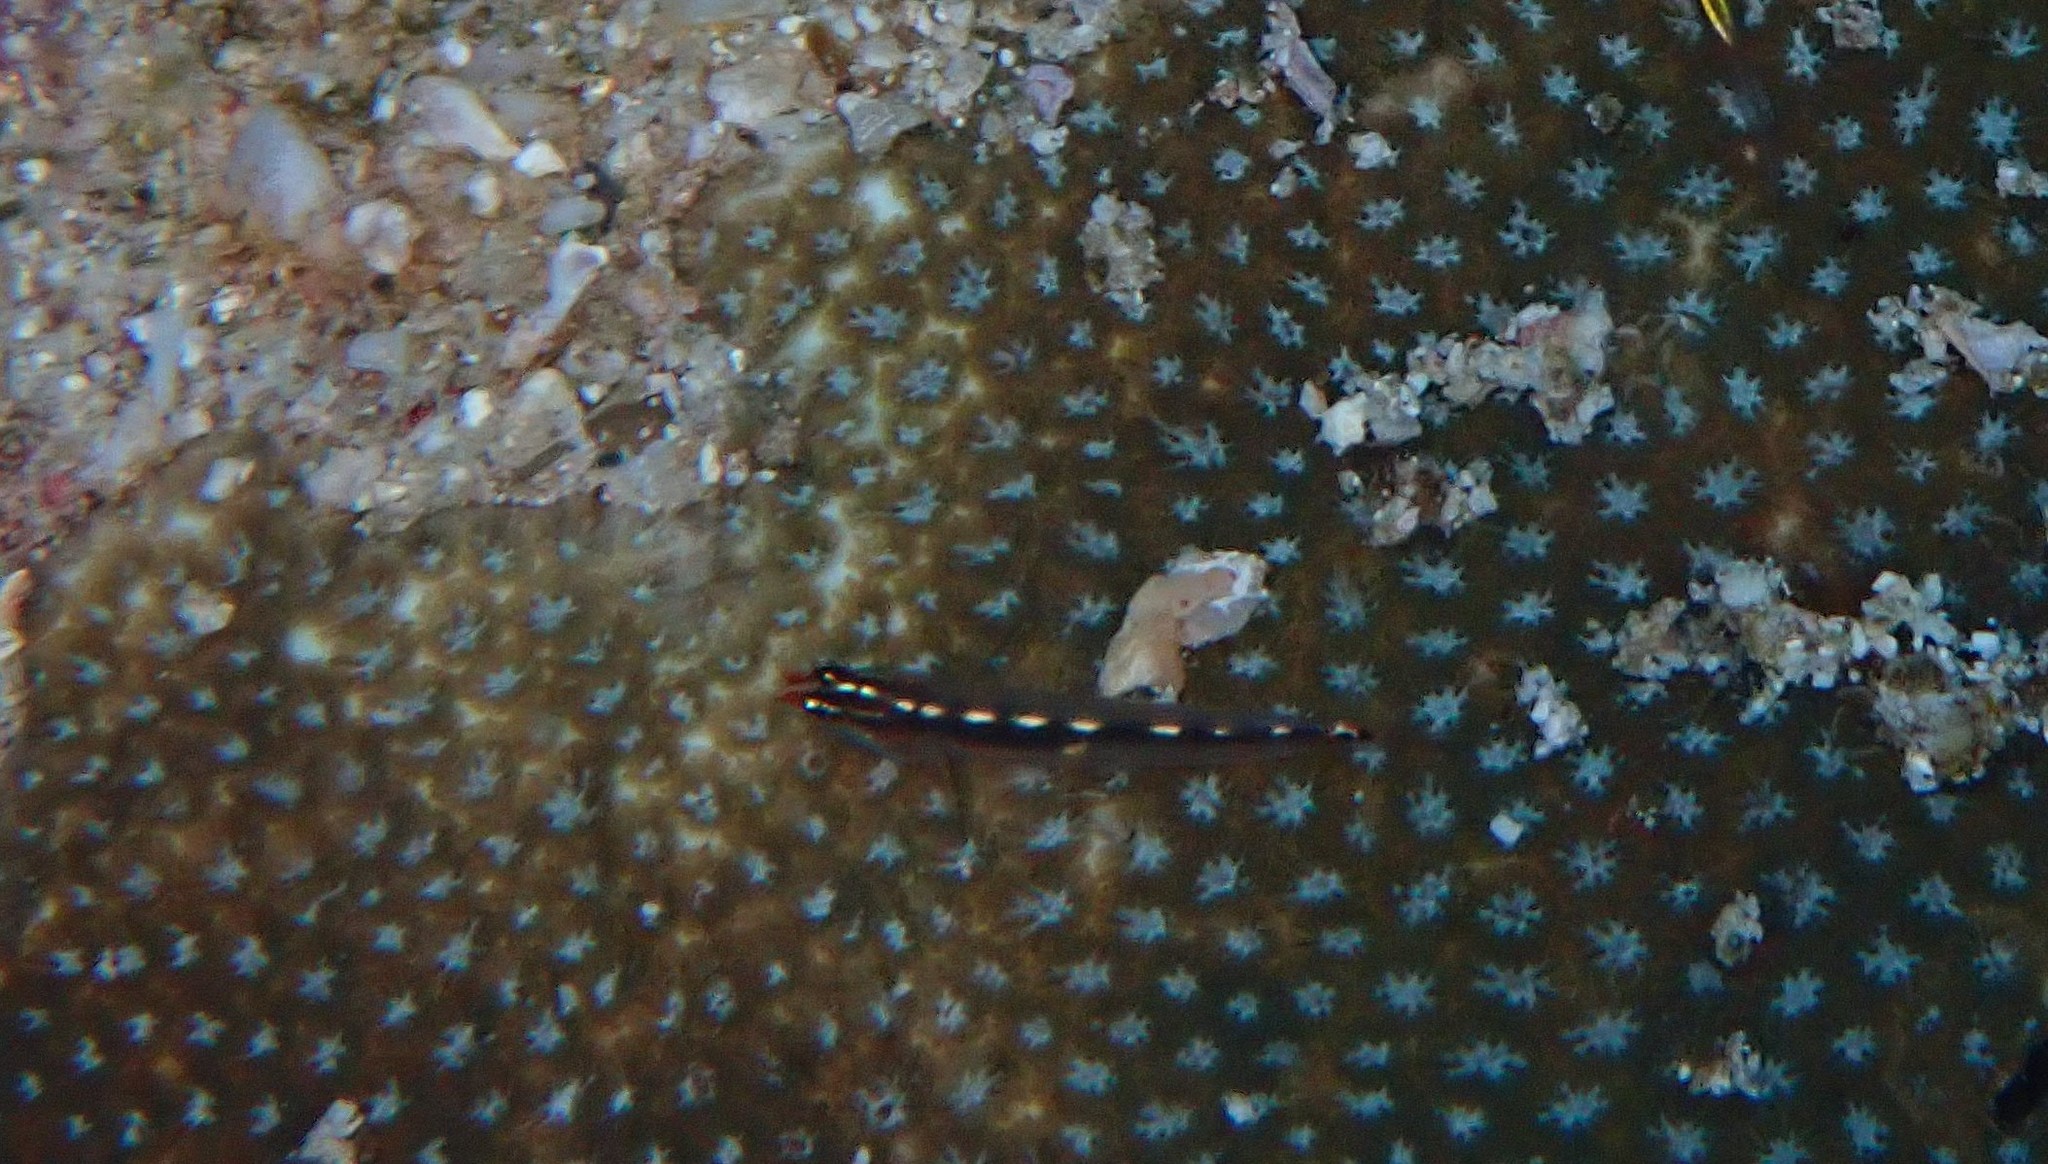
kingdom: Animalia
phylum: Chordata
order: Perciformes
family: Gobiidae
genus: Eviota
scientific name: Eviota sebreei
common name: Sebree's pygmy goby
